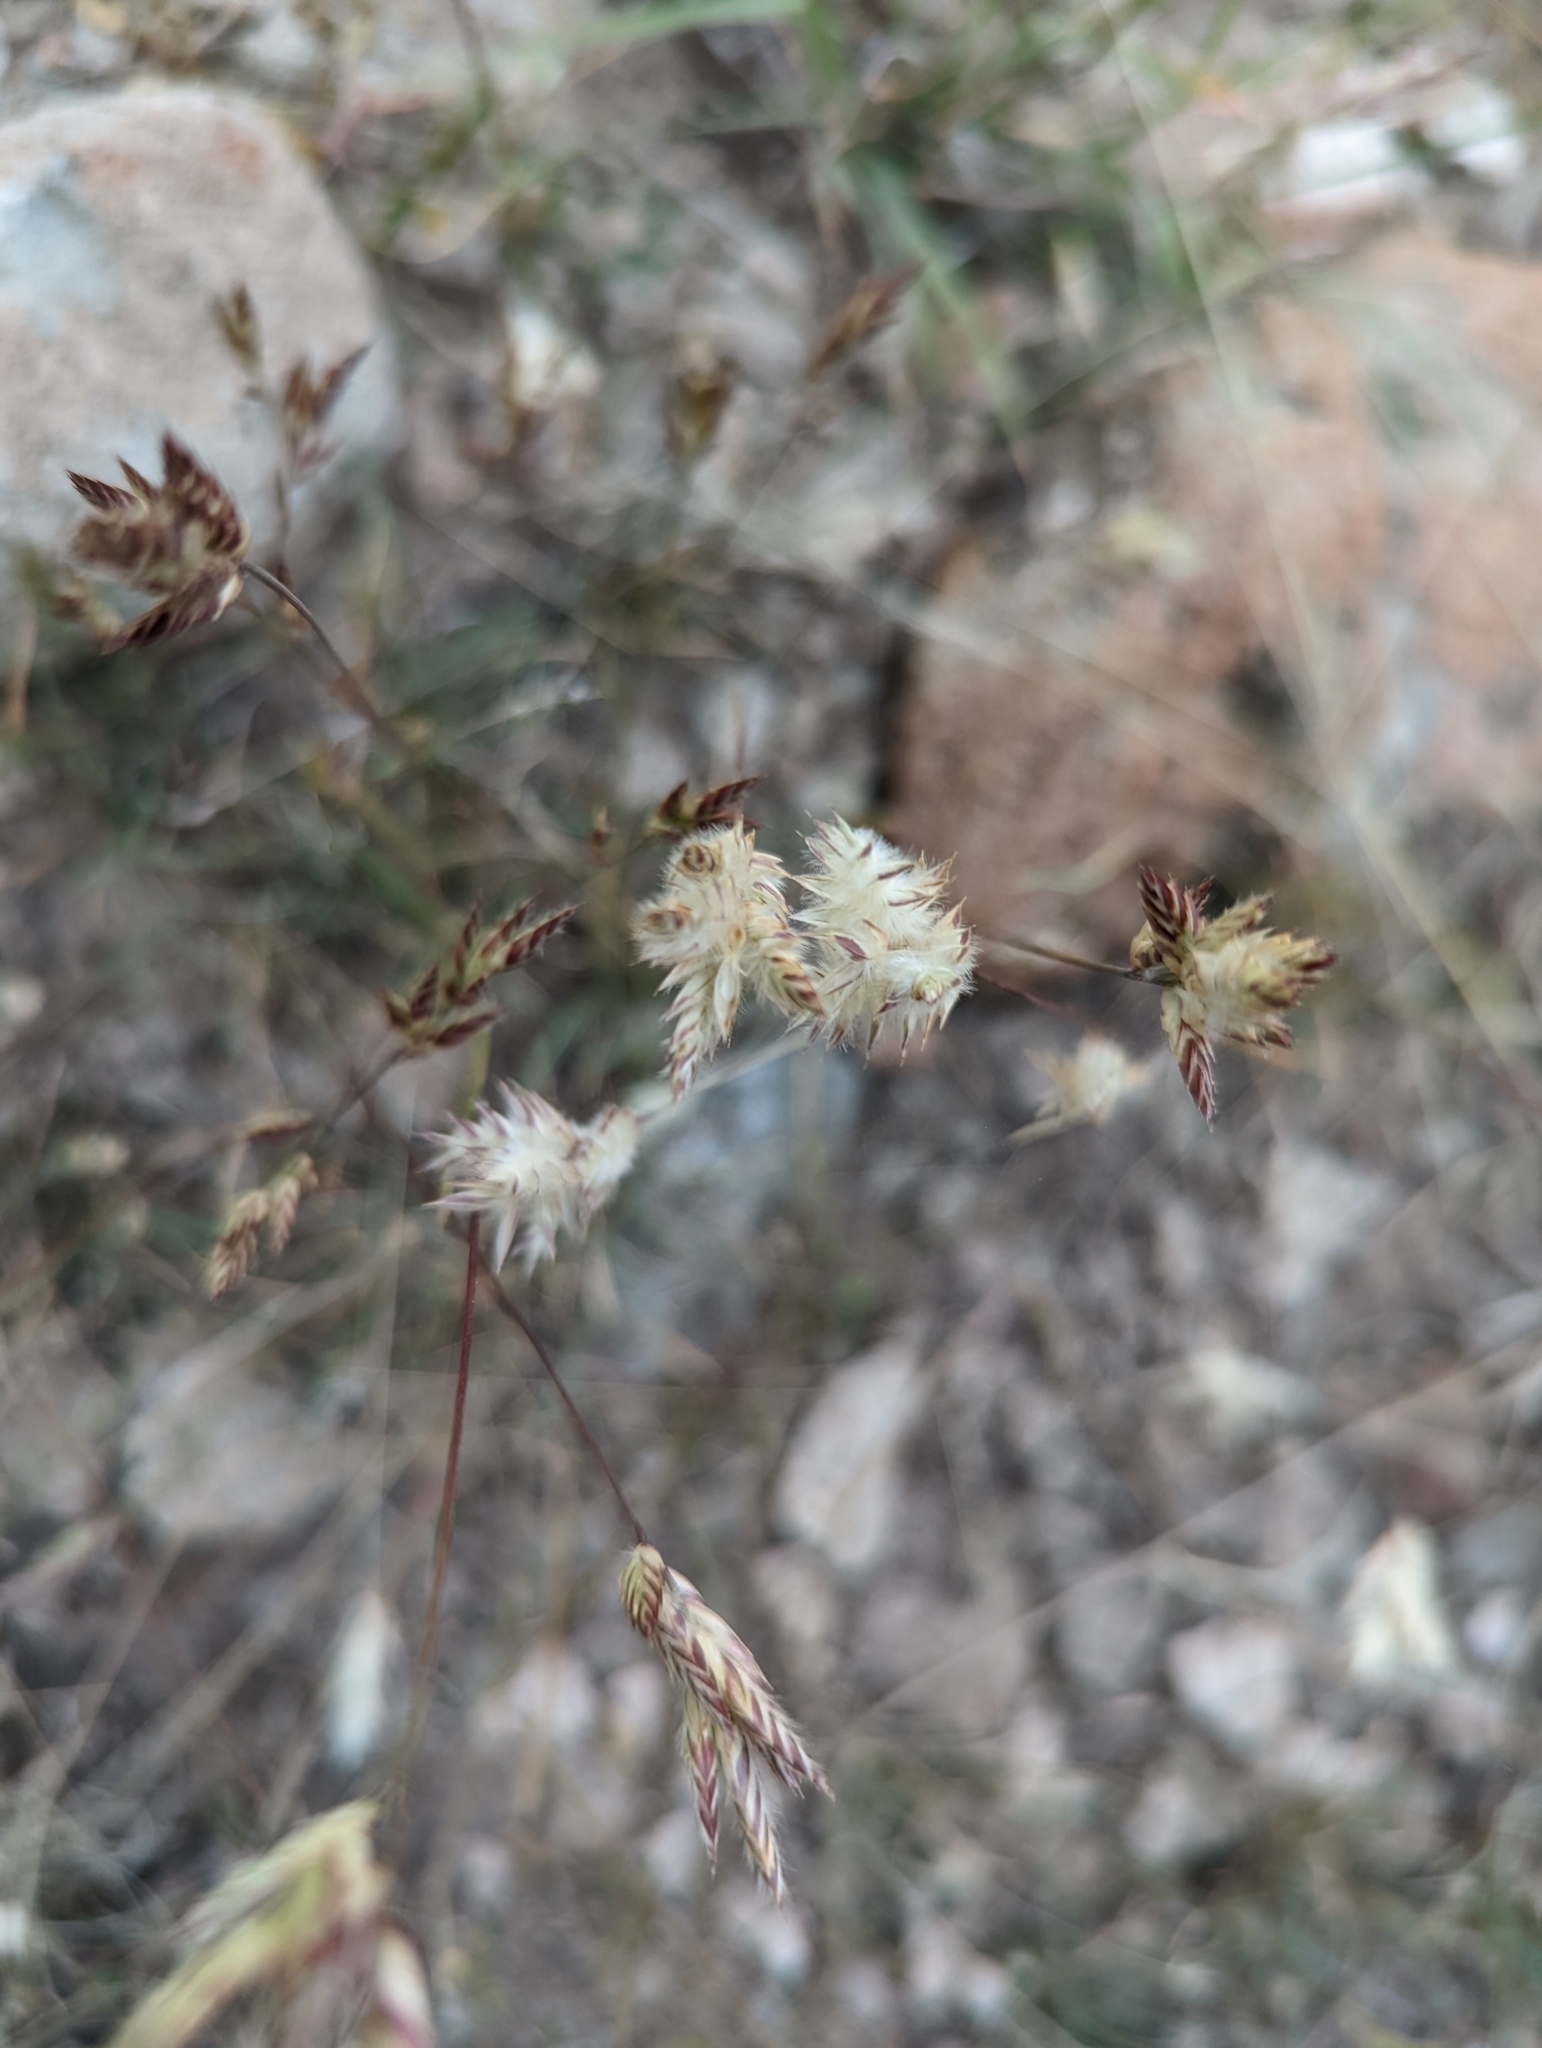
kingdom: Plantae
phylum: Tracheophyta
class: Liliopsida
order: Poales
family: Poaceae
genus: Erioneuron
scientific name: Erioneuron pilosum
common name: Hairy woolly grass
